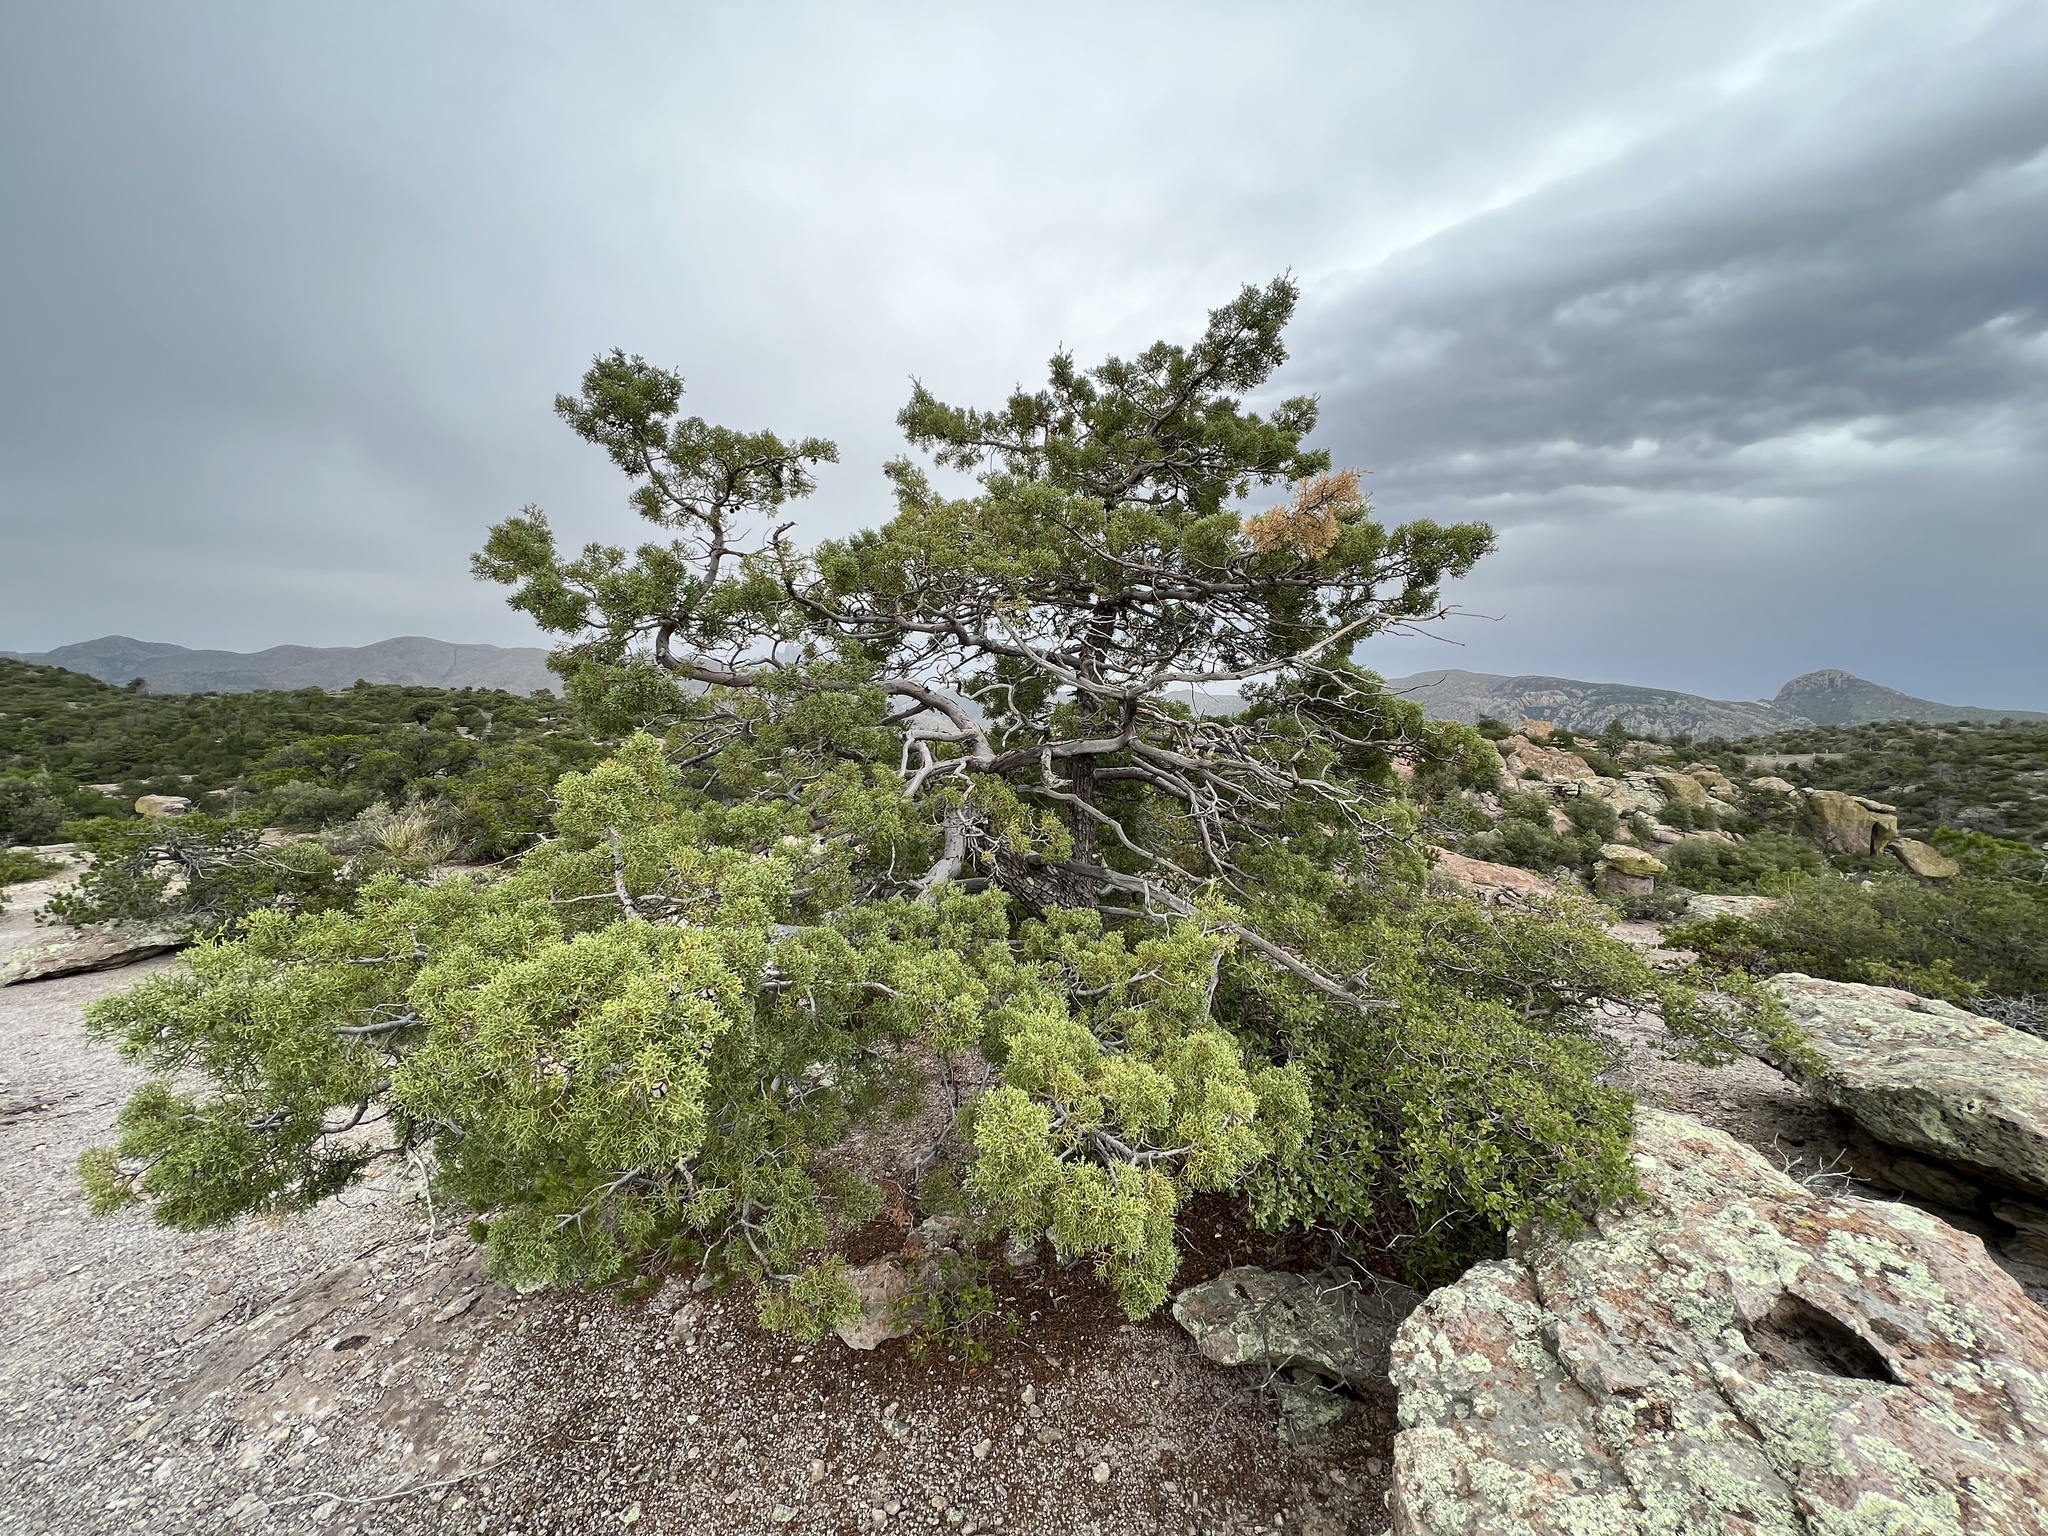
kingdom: Plantae
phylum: Tracheophyta
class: Pinopsida
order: Pinales
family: Cupressaceae
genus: Cupressus
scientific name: Cupressus arizonica
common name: Arizona cypress
